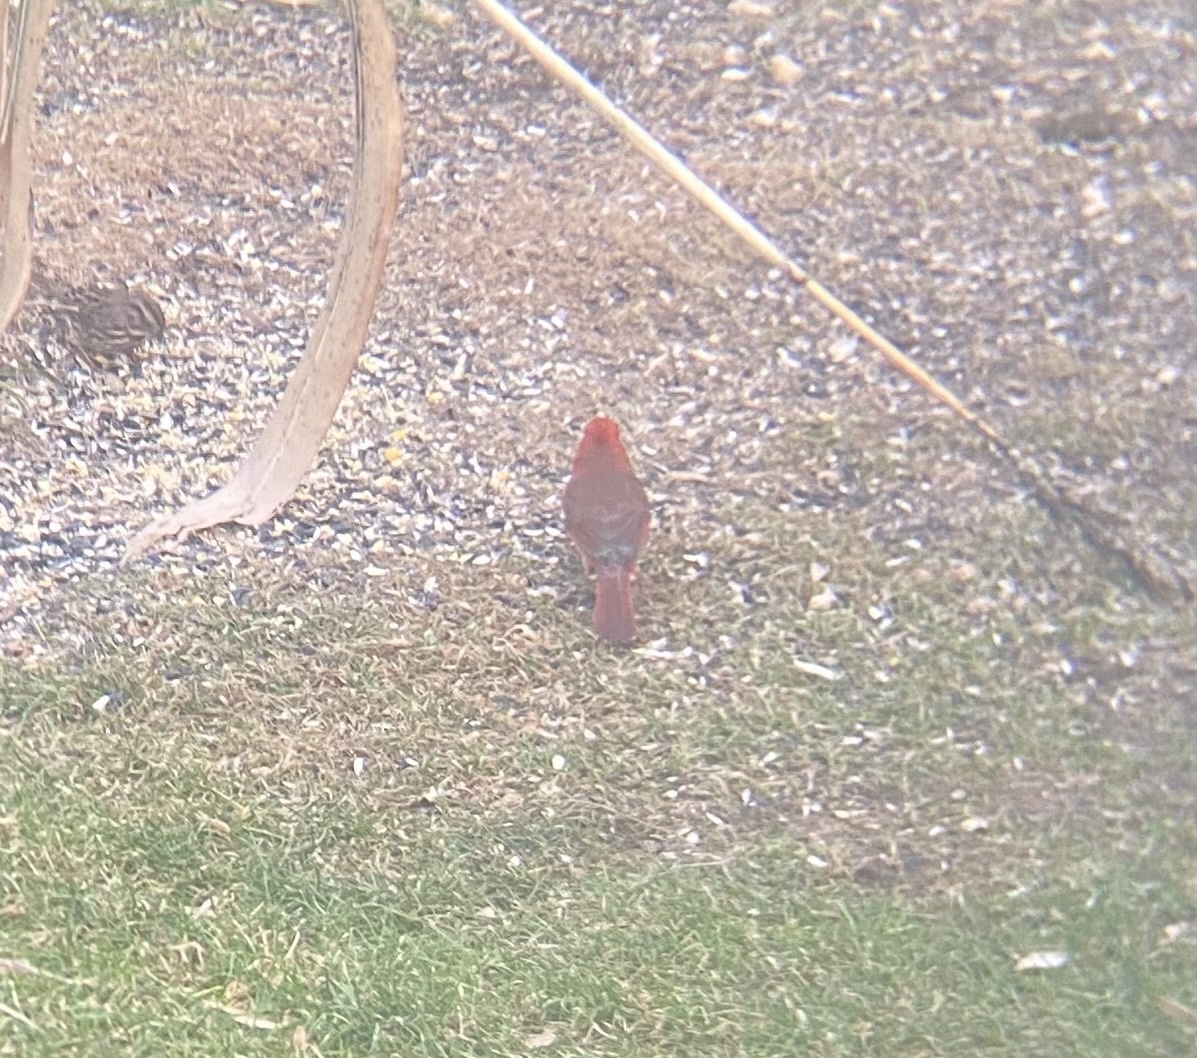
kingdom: Animalia
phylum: Chordata
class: Aves
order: Passeriformes
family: Cardinalidae
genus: Cardinalis
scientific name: Cardinalis cardinalis
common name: Northern cardinal
